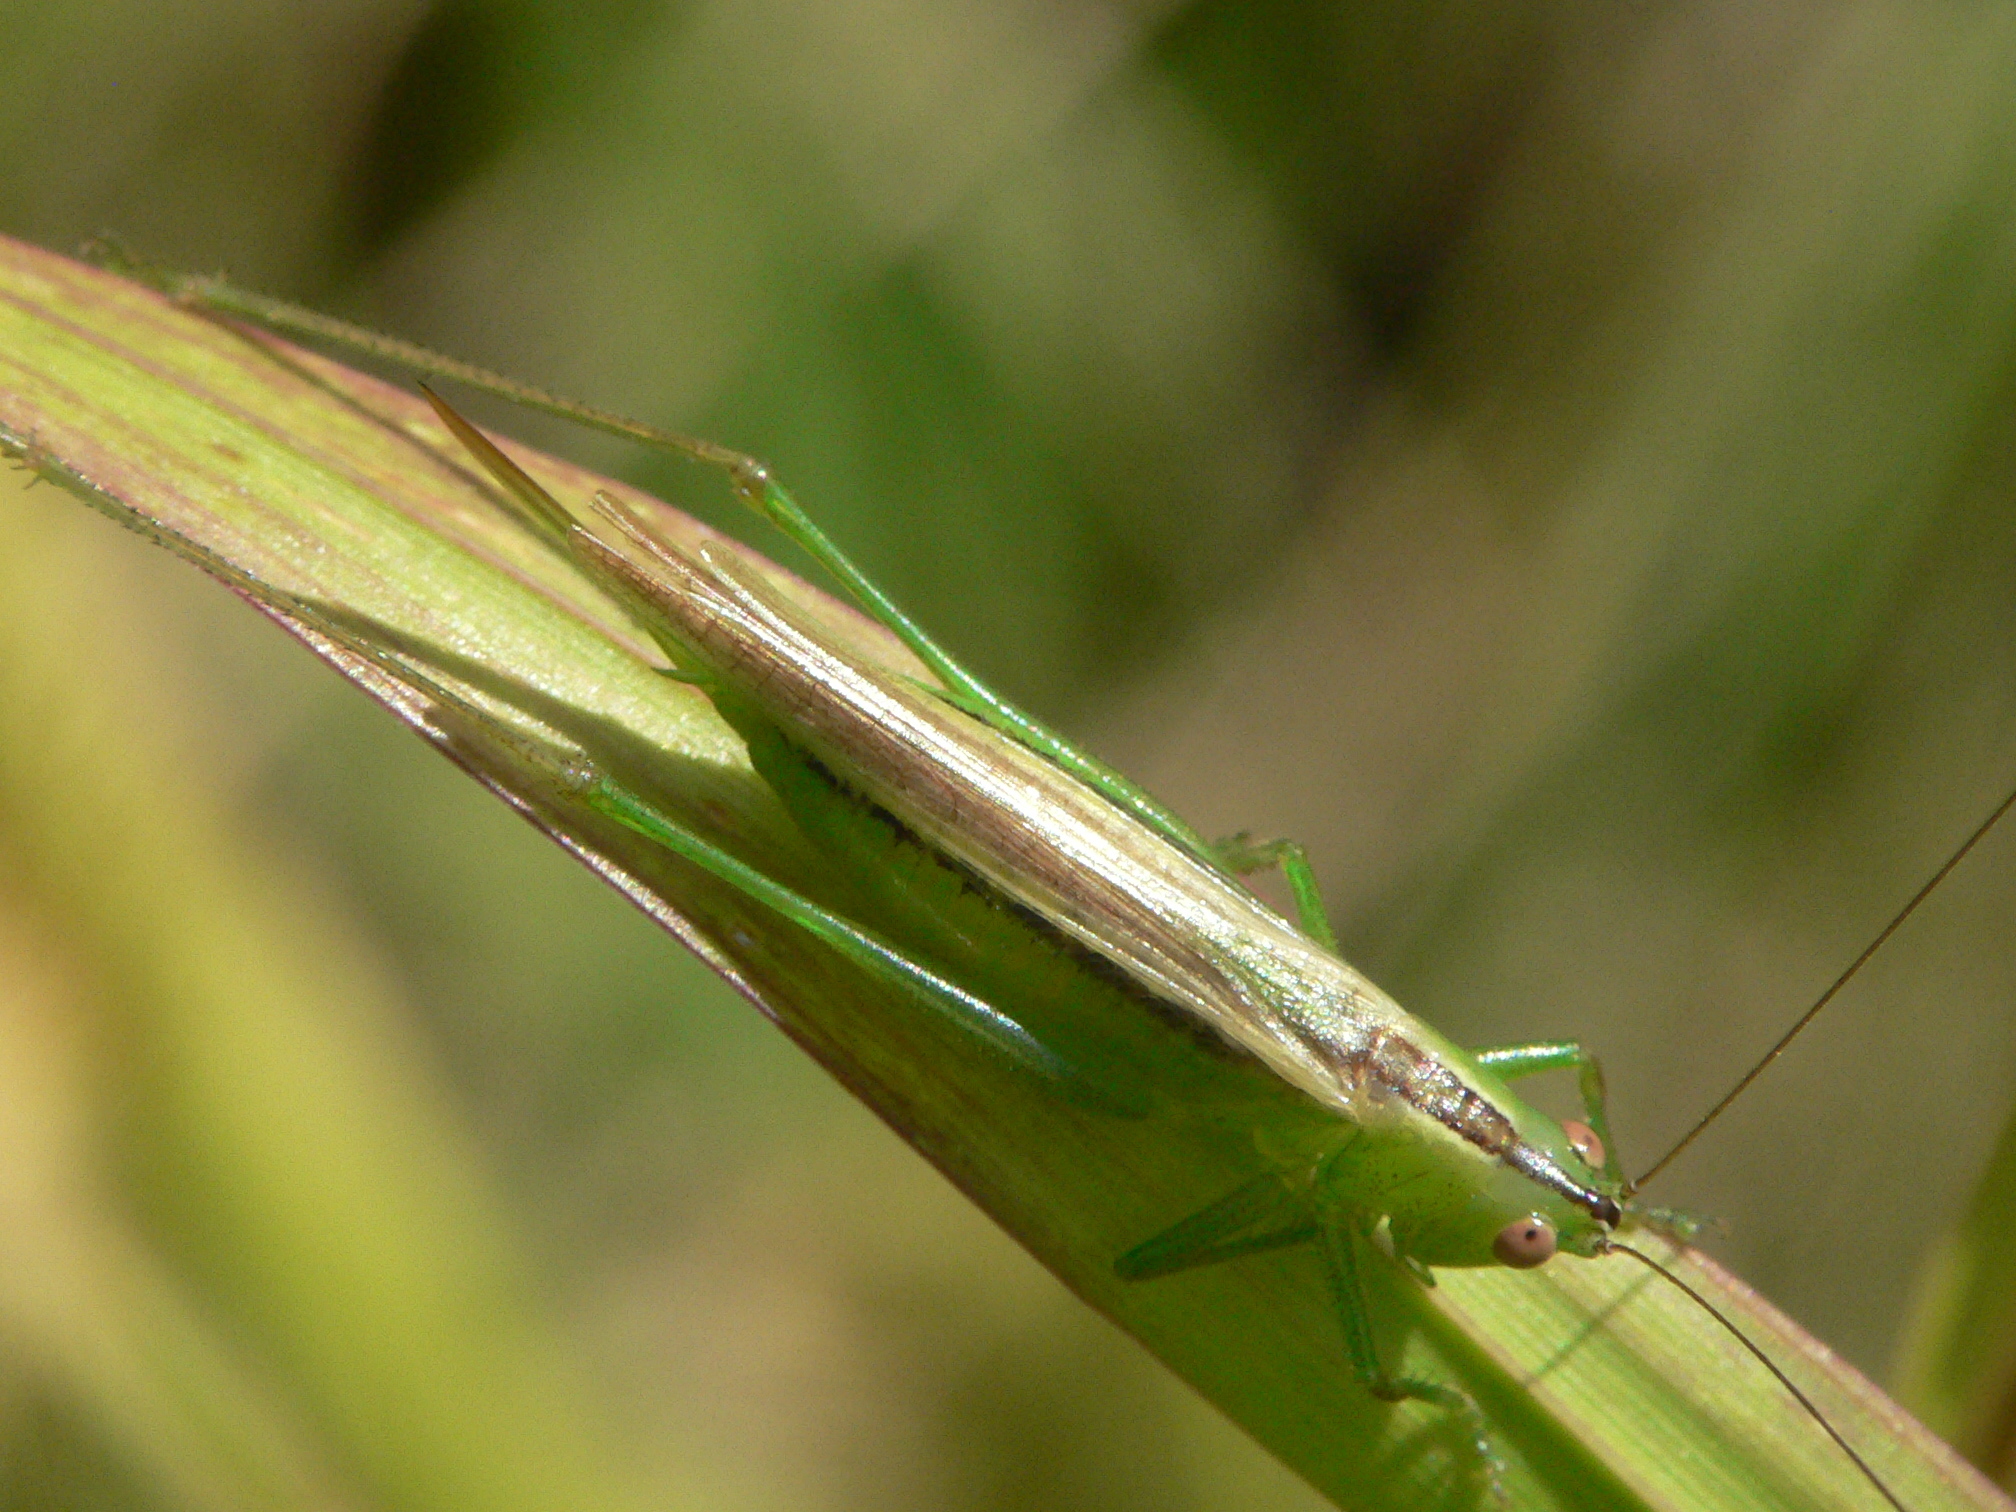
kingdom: Animalia
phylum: Arthropoda
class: Insecta
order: Orthoptera
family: Tettigoniidae
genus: Conocephalus
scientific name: Conocephalus fasciatus
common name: Slender meadow katydid
